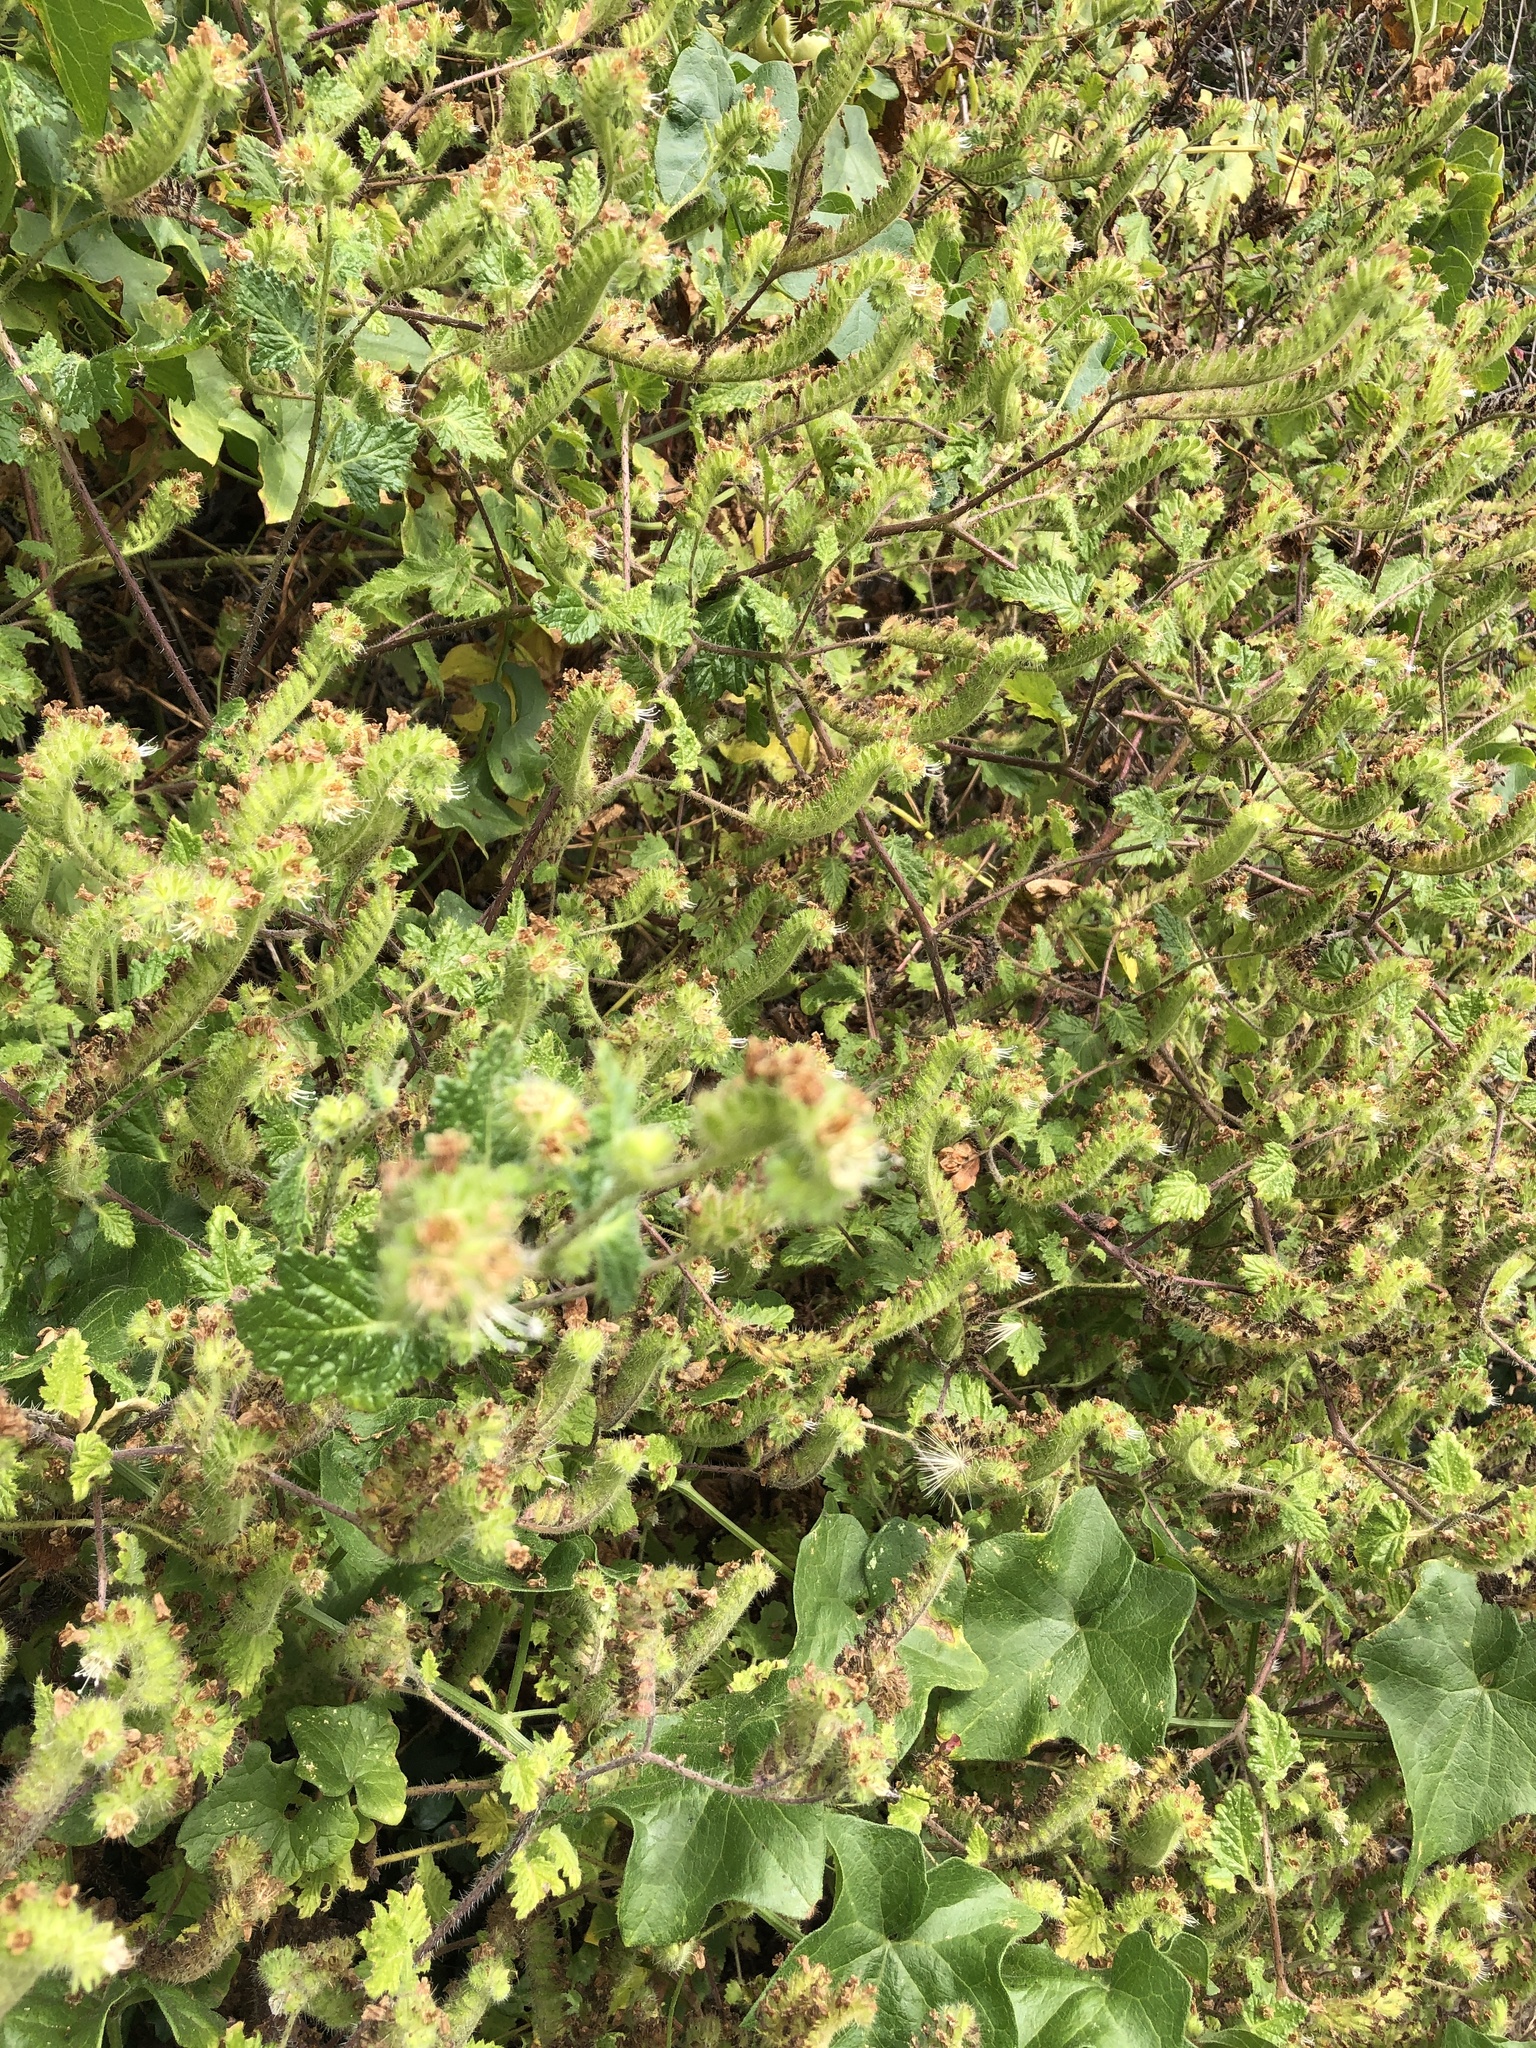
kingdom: Plantae
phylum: Tracheophyta
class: Magnoliopsida
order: Boraginales
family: Hydrophyllaceae
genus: Phacelia
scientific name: Phacelia malvifolia
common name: Mallow-leaf phacelia
